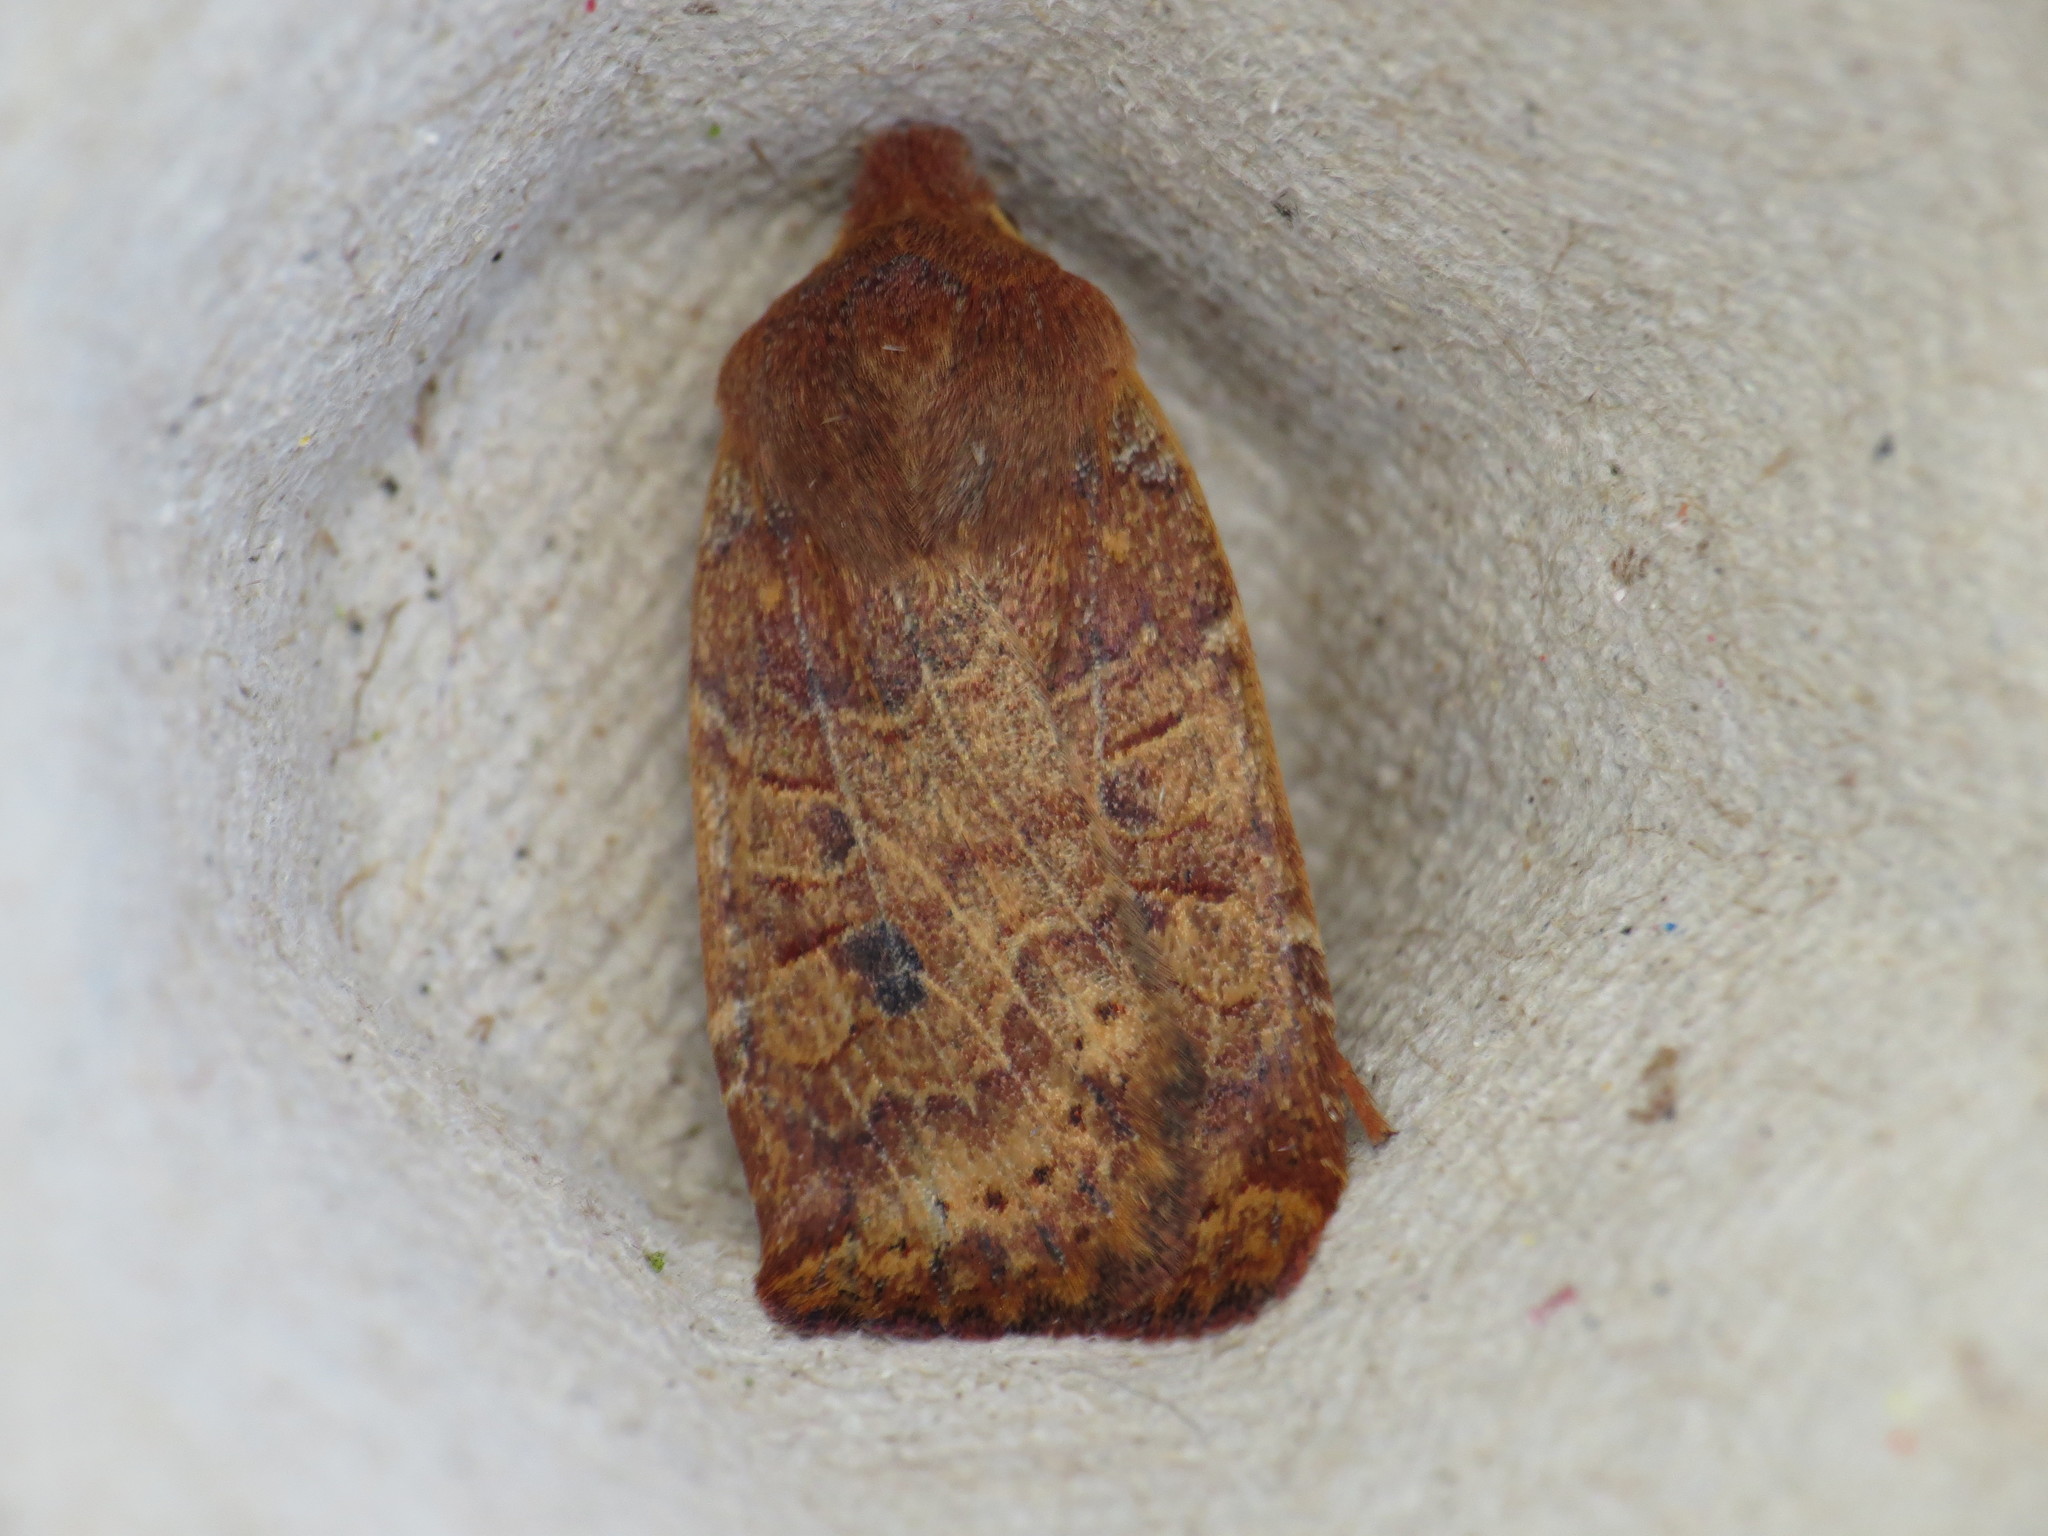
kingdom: Animalia
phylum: Arthropoda
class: Insecta
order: Lepidoptera
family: Noctuidae
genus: Conistra
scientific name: Conistra vaccinii
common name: Chestnut
